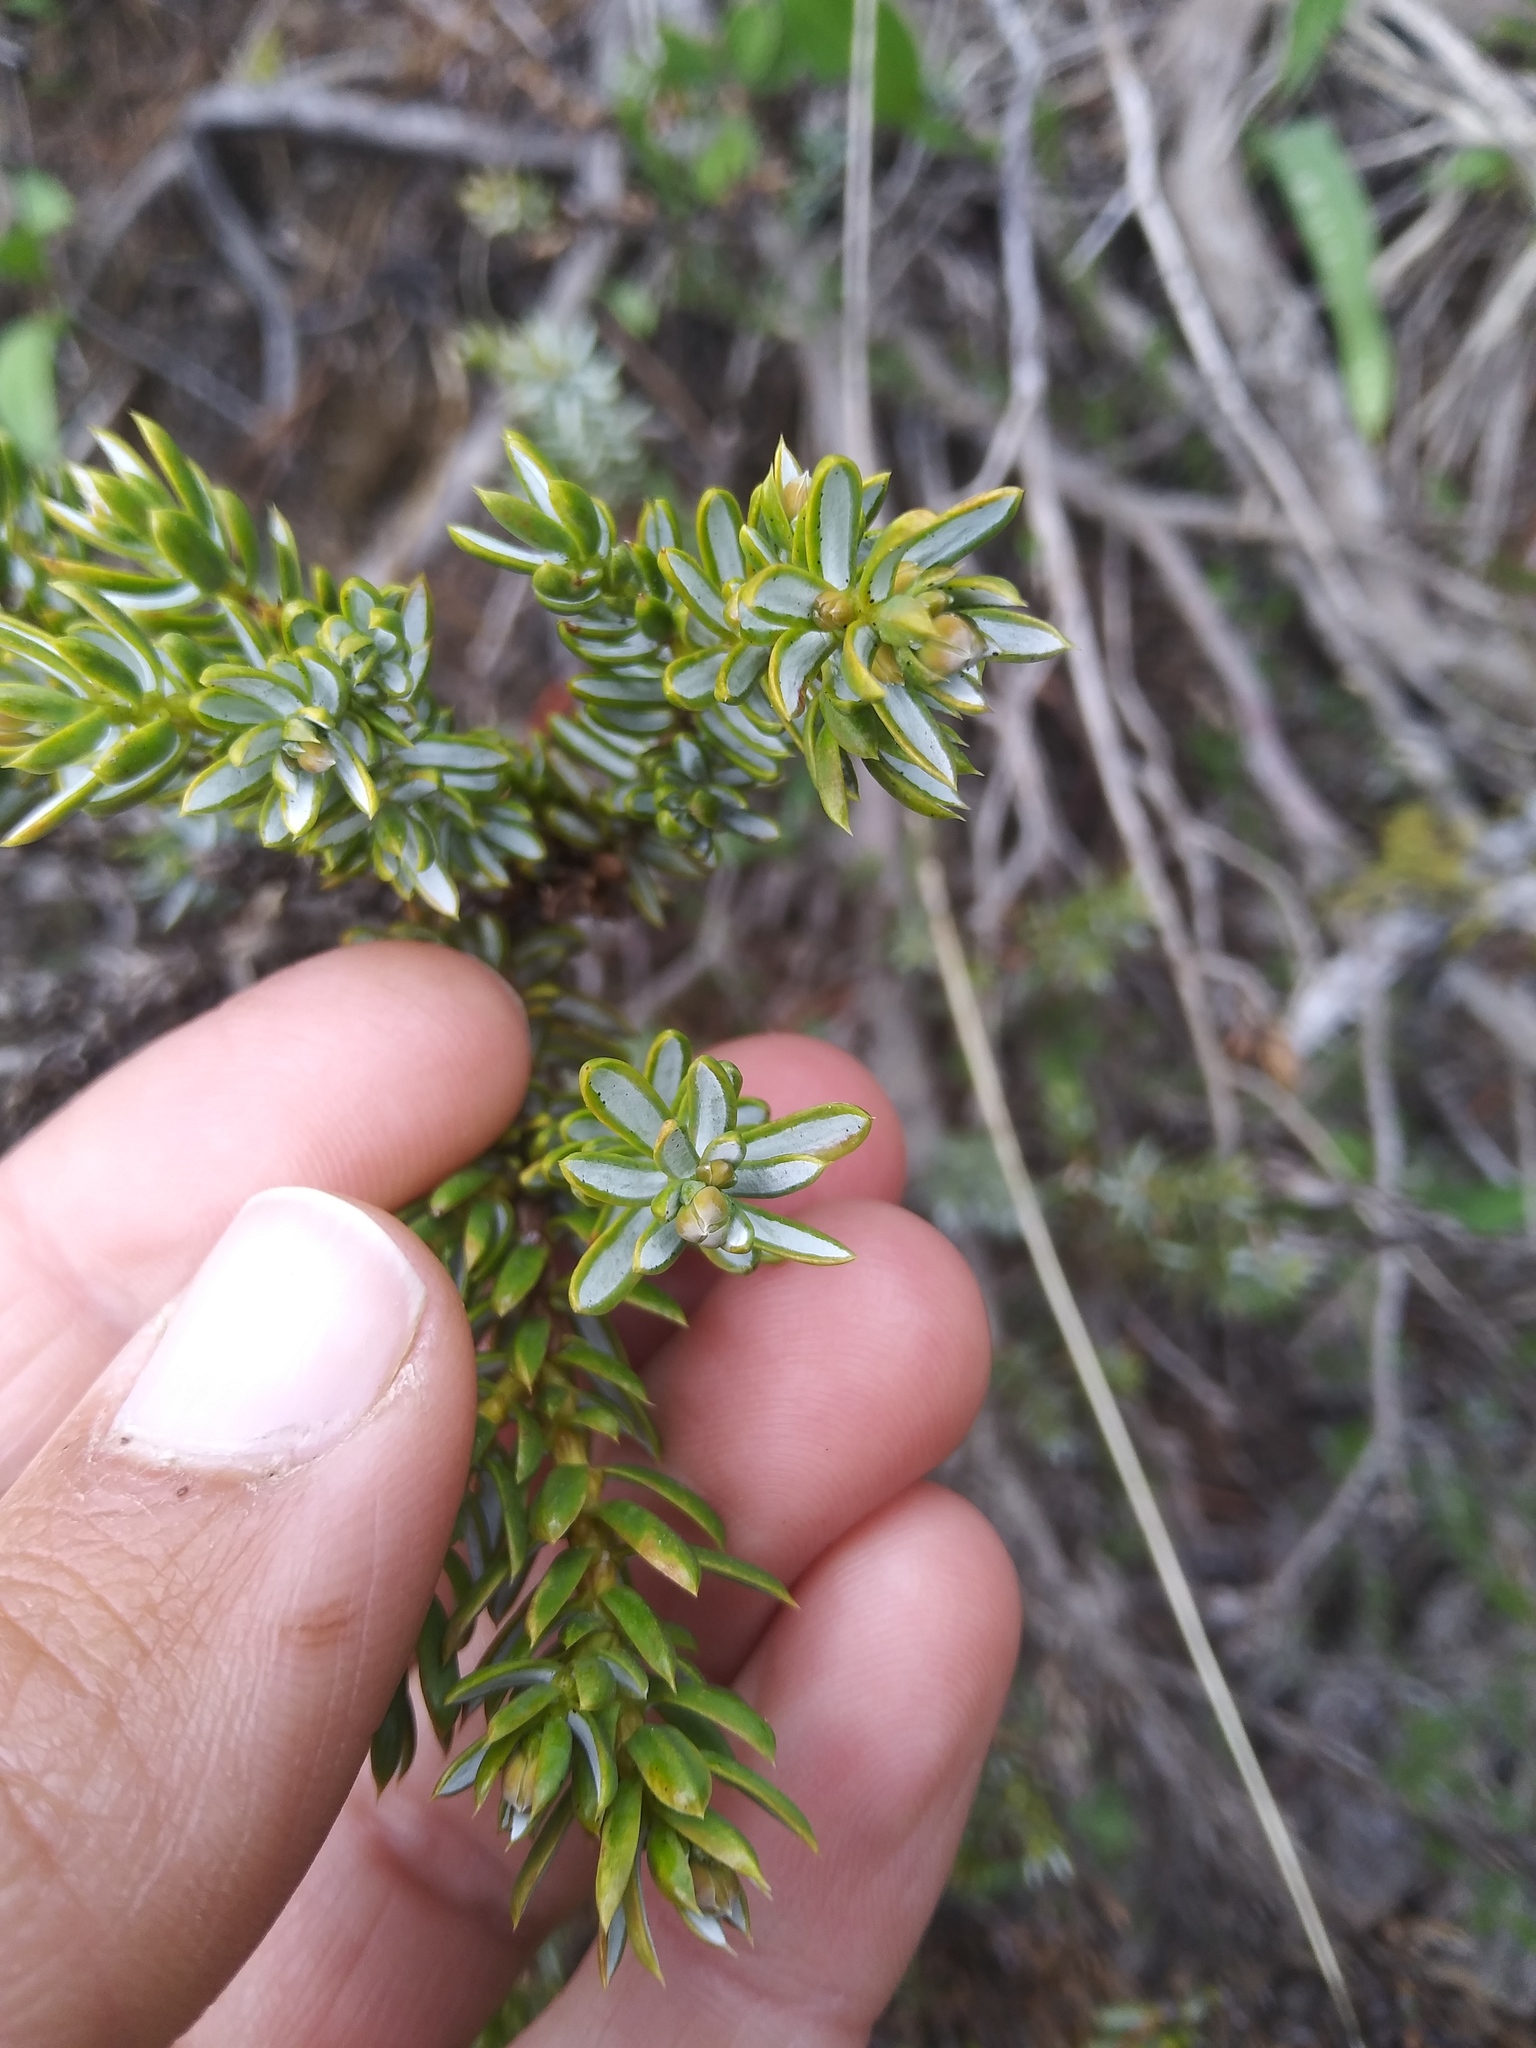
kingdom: Plantae
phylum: Tracheophyta
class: Pinopsida
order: Pinales
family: Cupressaceae
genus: Juniperus
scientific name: Juniperus communis
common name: Common juniper
